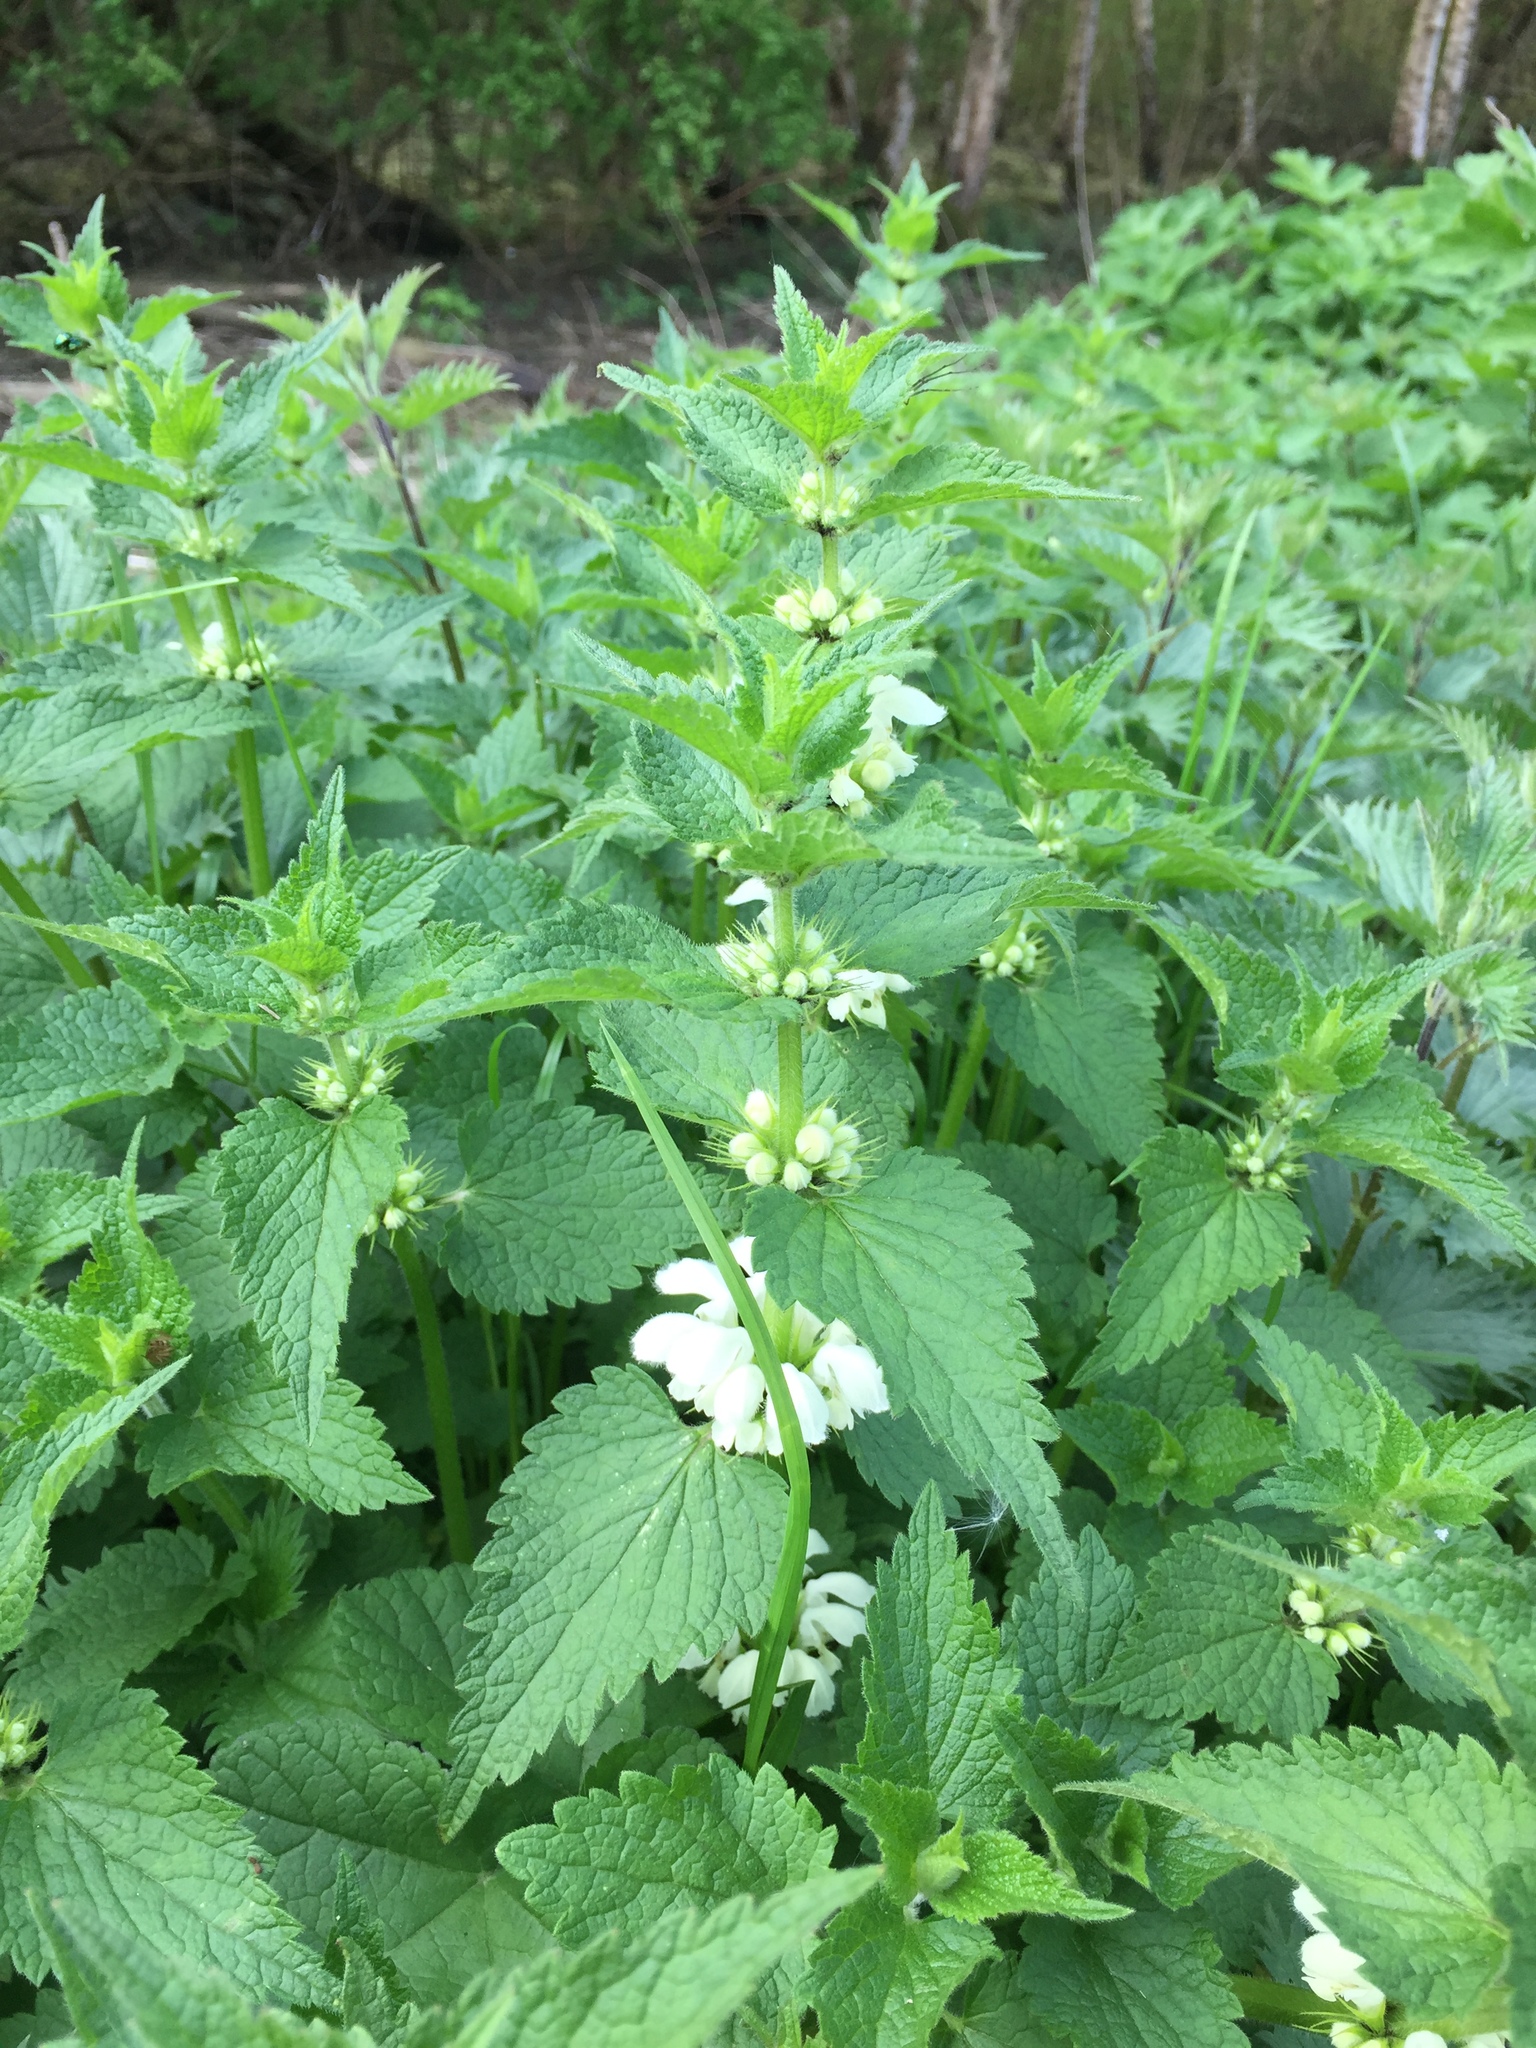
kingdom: Plantae
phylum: Tracheophyta
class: Magnoliopsida
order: Lamiales
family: Lamiaceae
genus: Lamium
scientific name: Lamium album
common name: White dead-nettle
